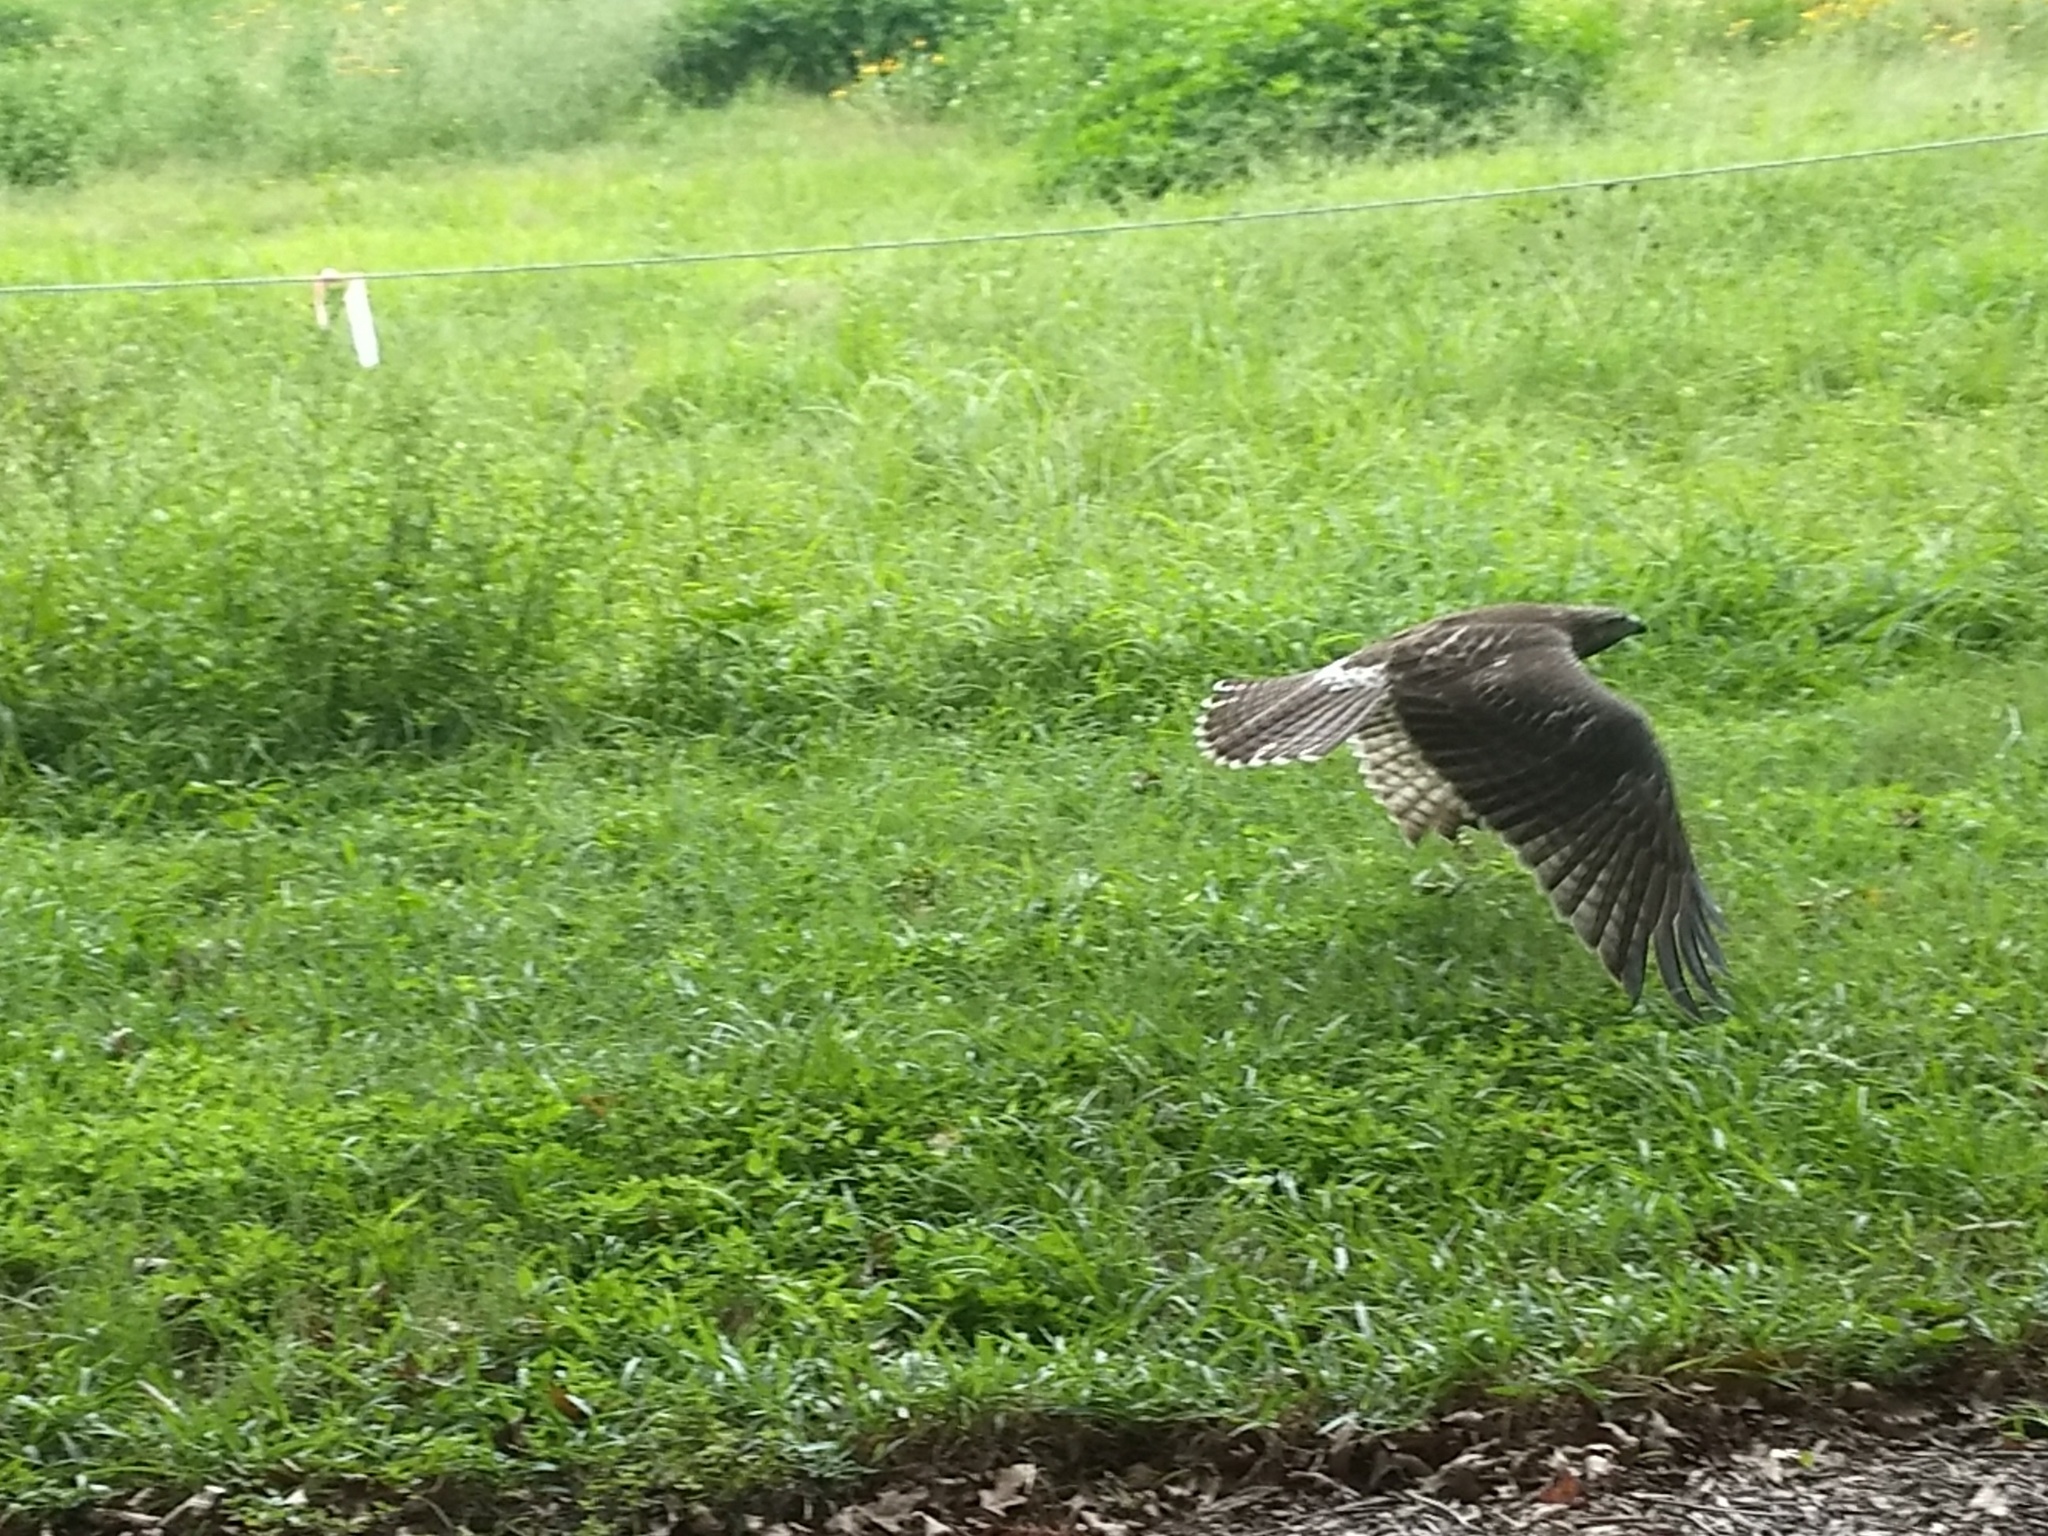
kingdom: Animalia
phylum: Chordata
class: Aves
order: Accipitriformes
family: Accipitridae
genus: Buteo
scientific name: Buteo jamaicensis
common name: Red-tailed hawk
